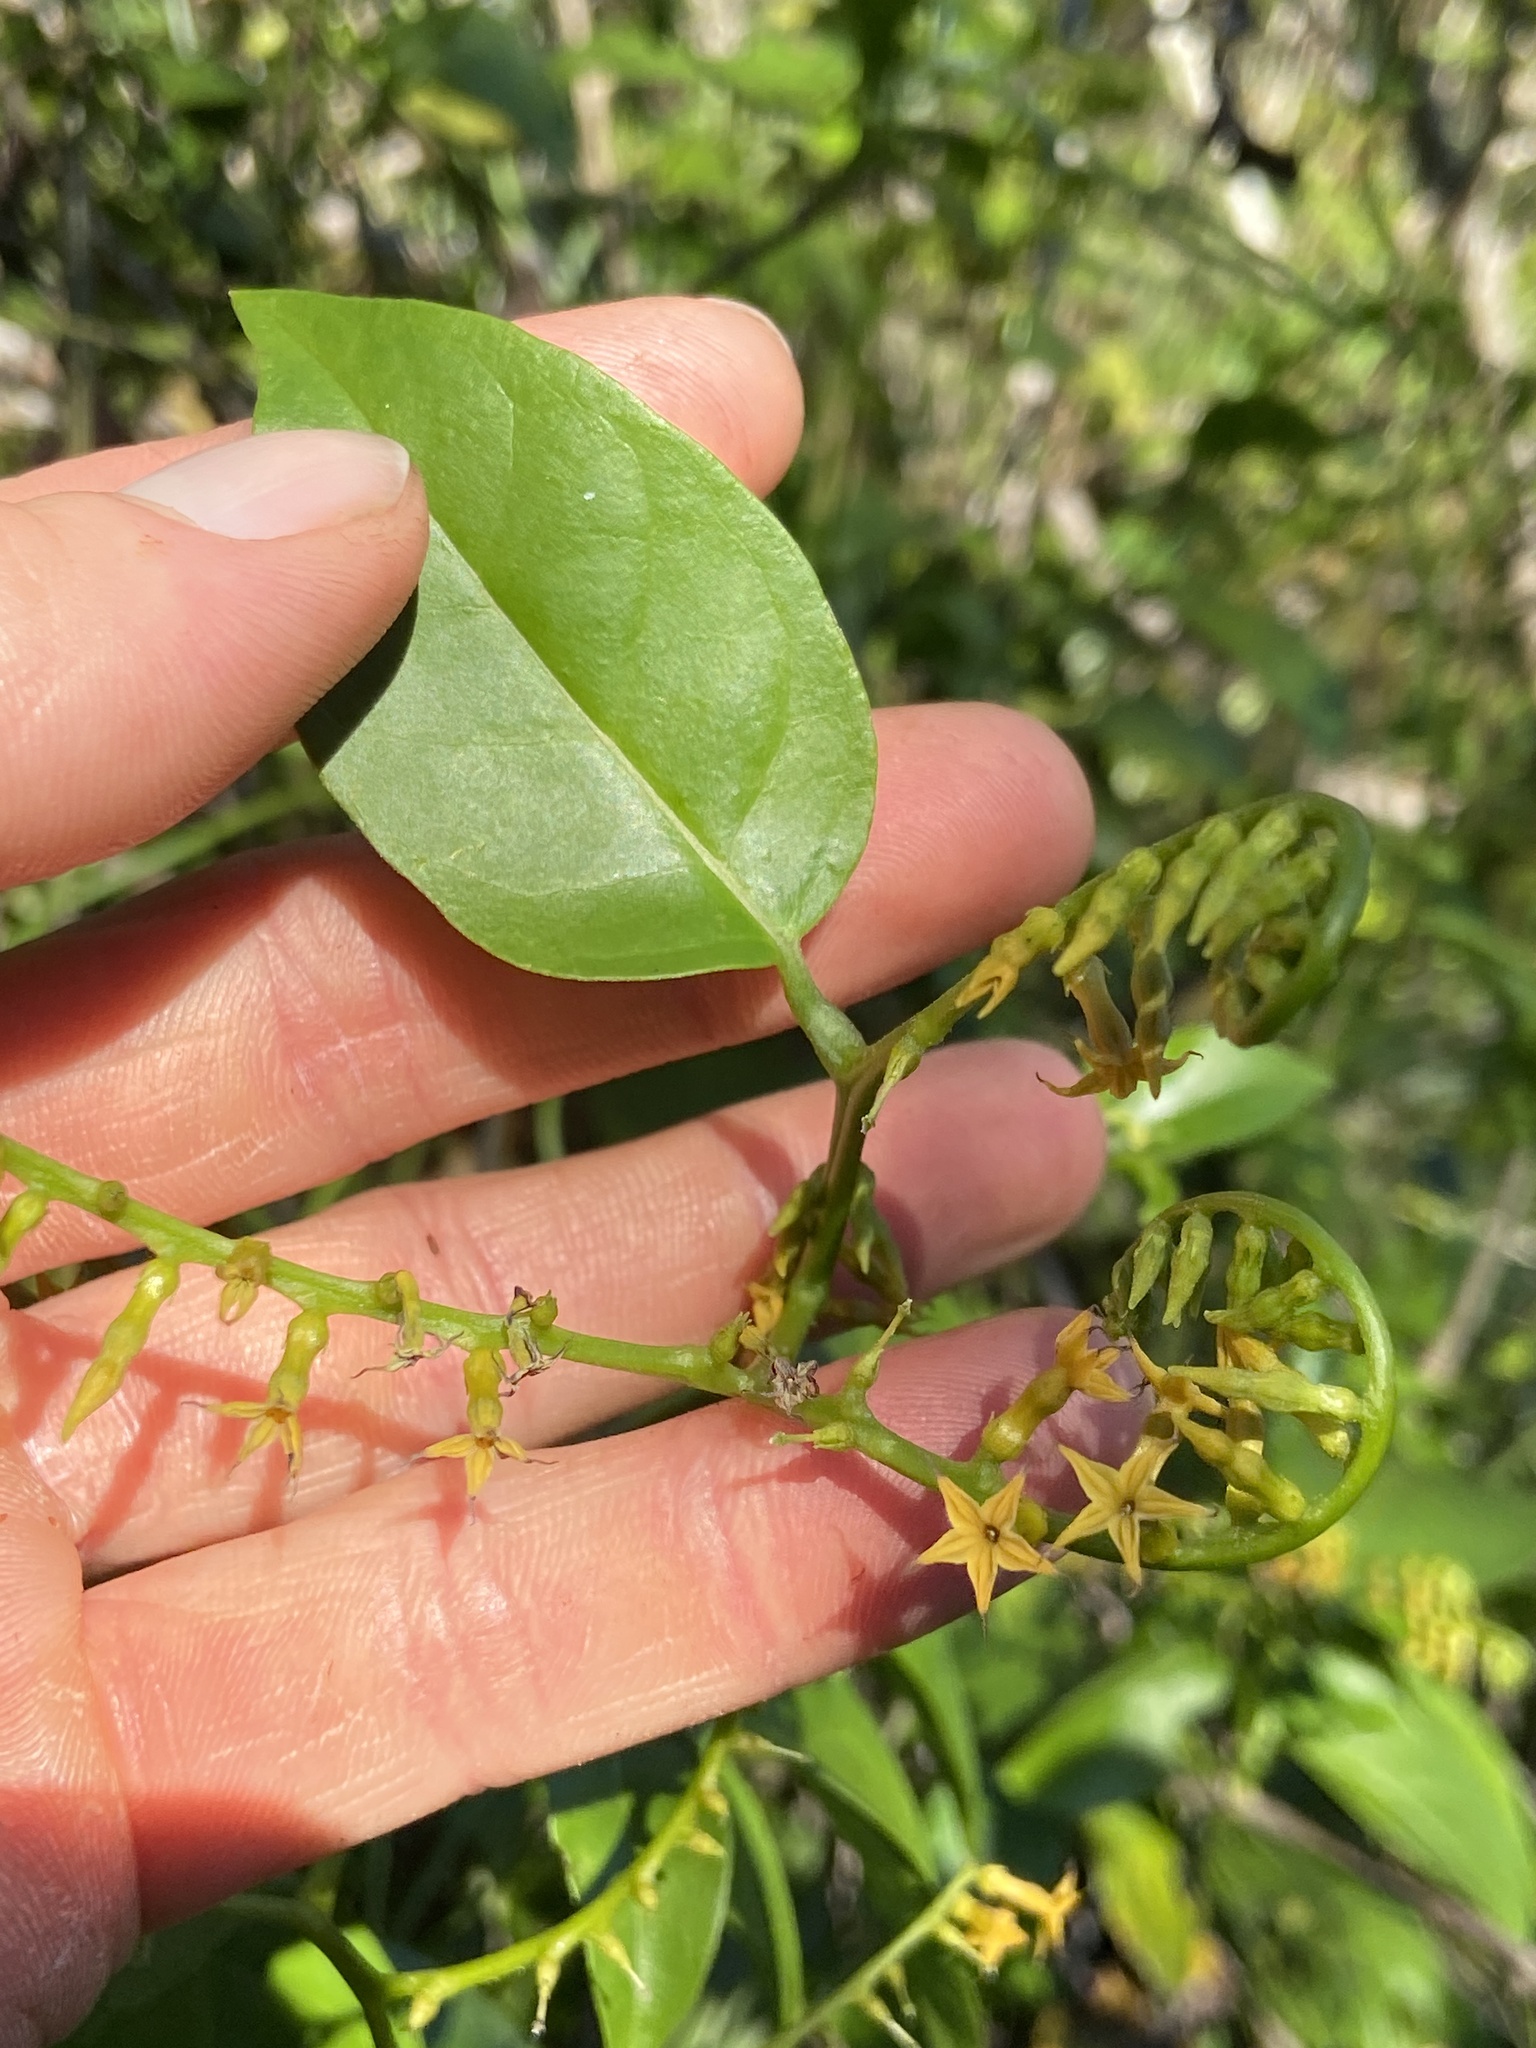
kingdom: Plantae
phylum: Tracheophyta
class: Magnoliopsida
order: Boraginales
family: Heliotropiaceae
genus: Myriopus
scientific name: Myriopus volubilis
